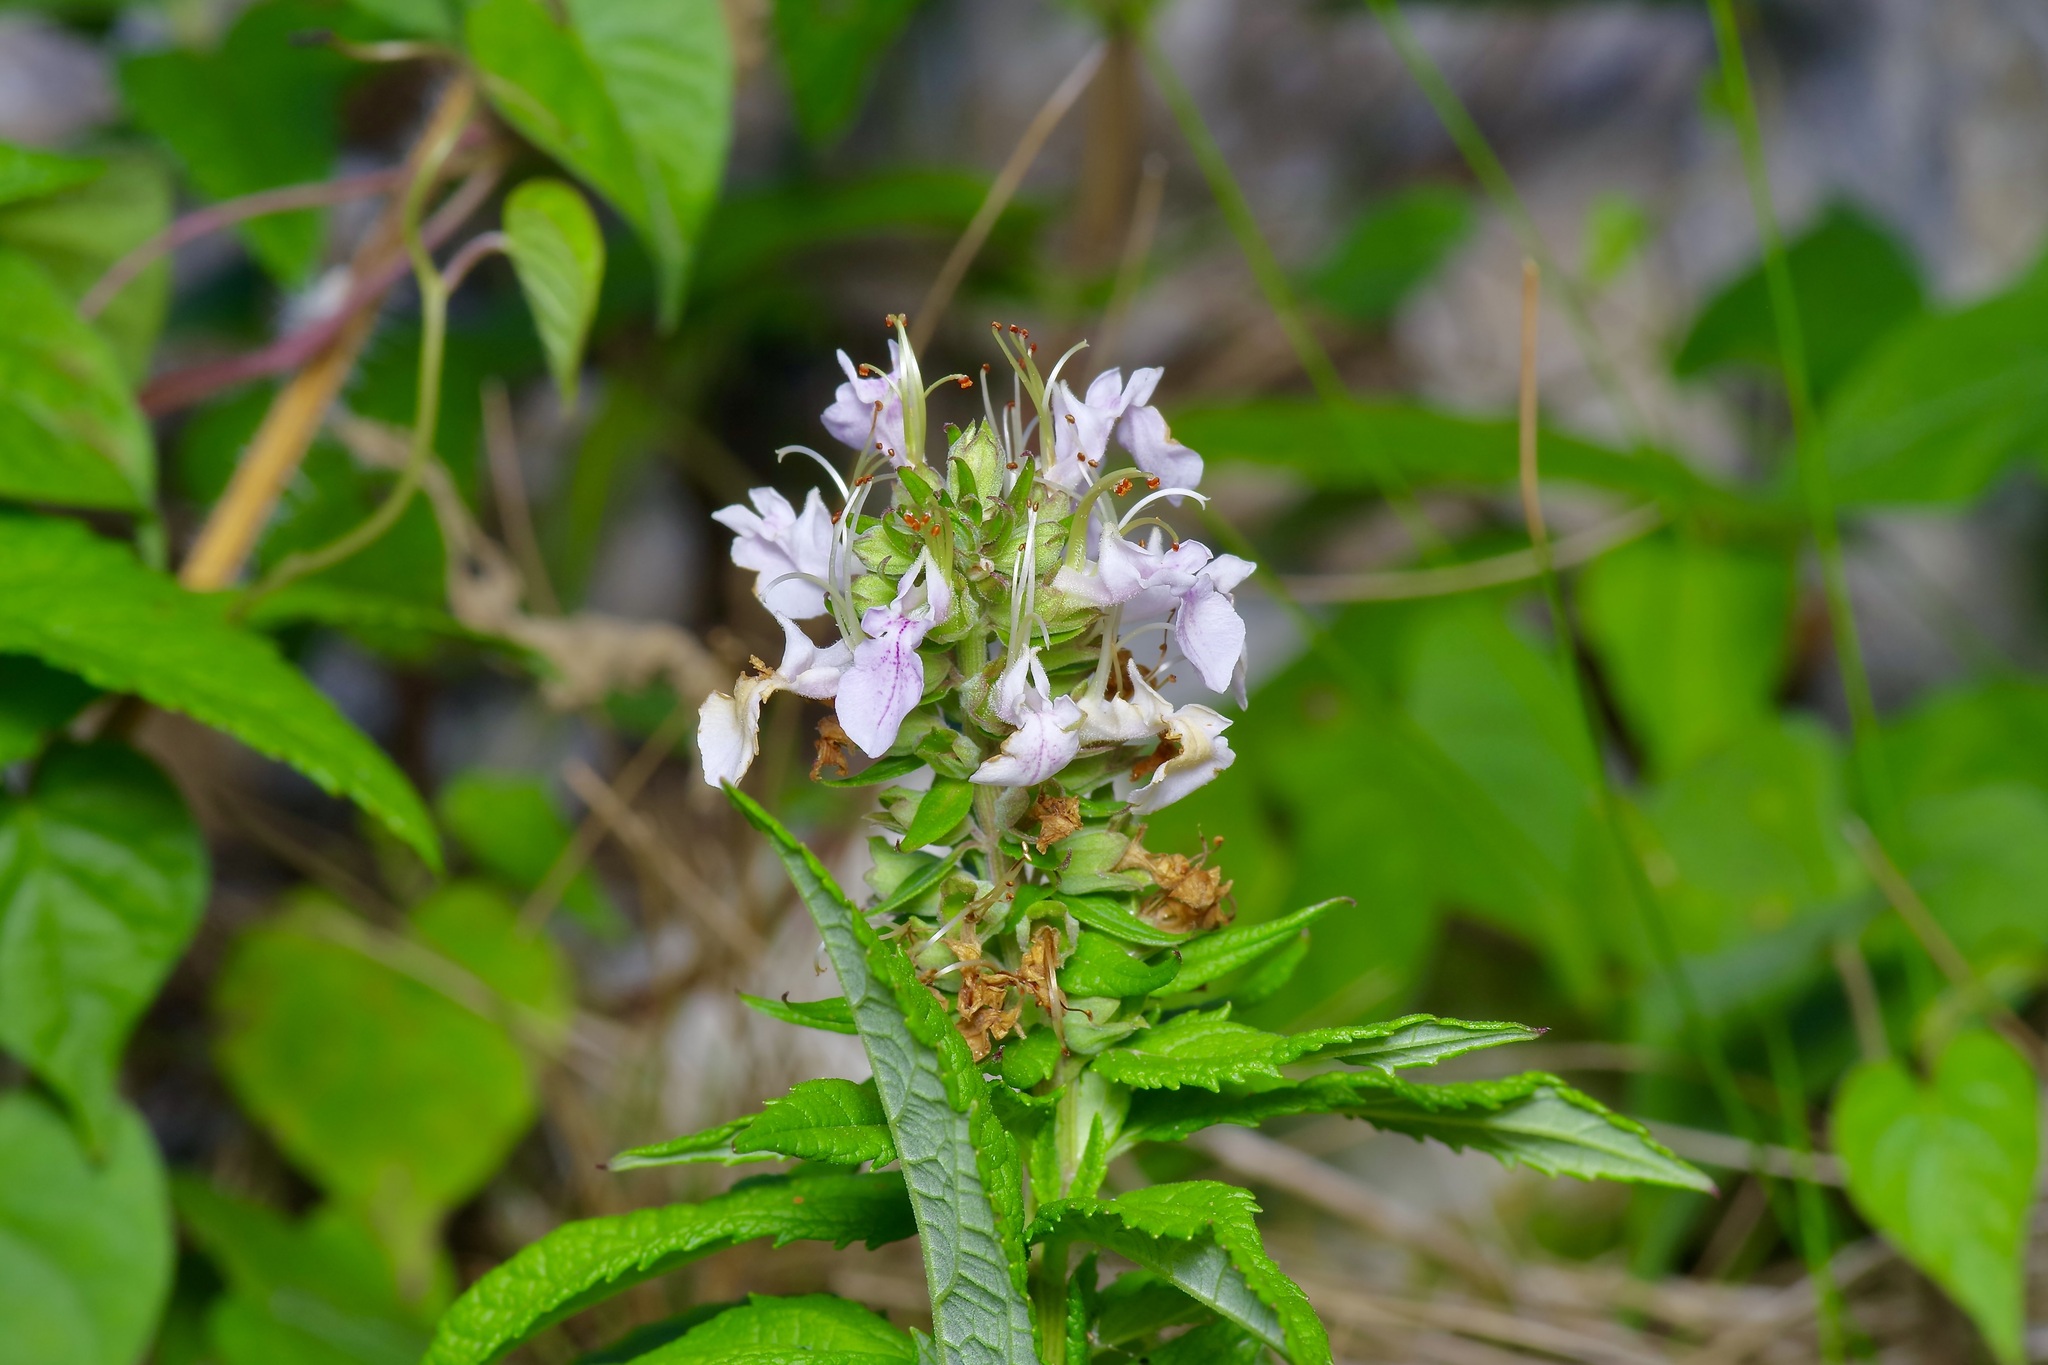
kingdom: Plantae
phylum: Tracheophyta
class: Magnoliopsida
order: Lamiales
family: Lamiaceae
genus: Teucrium
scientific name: Teucrium canadense
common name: American germander
